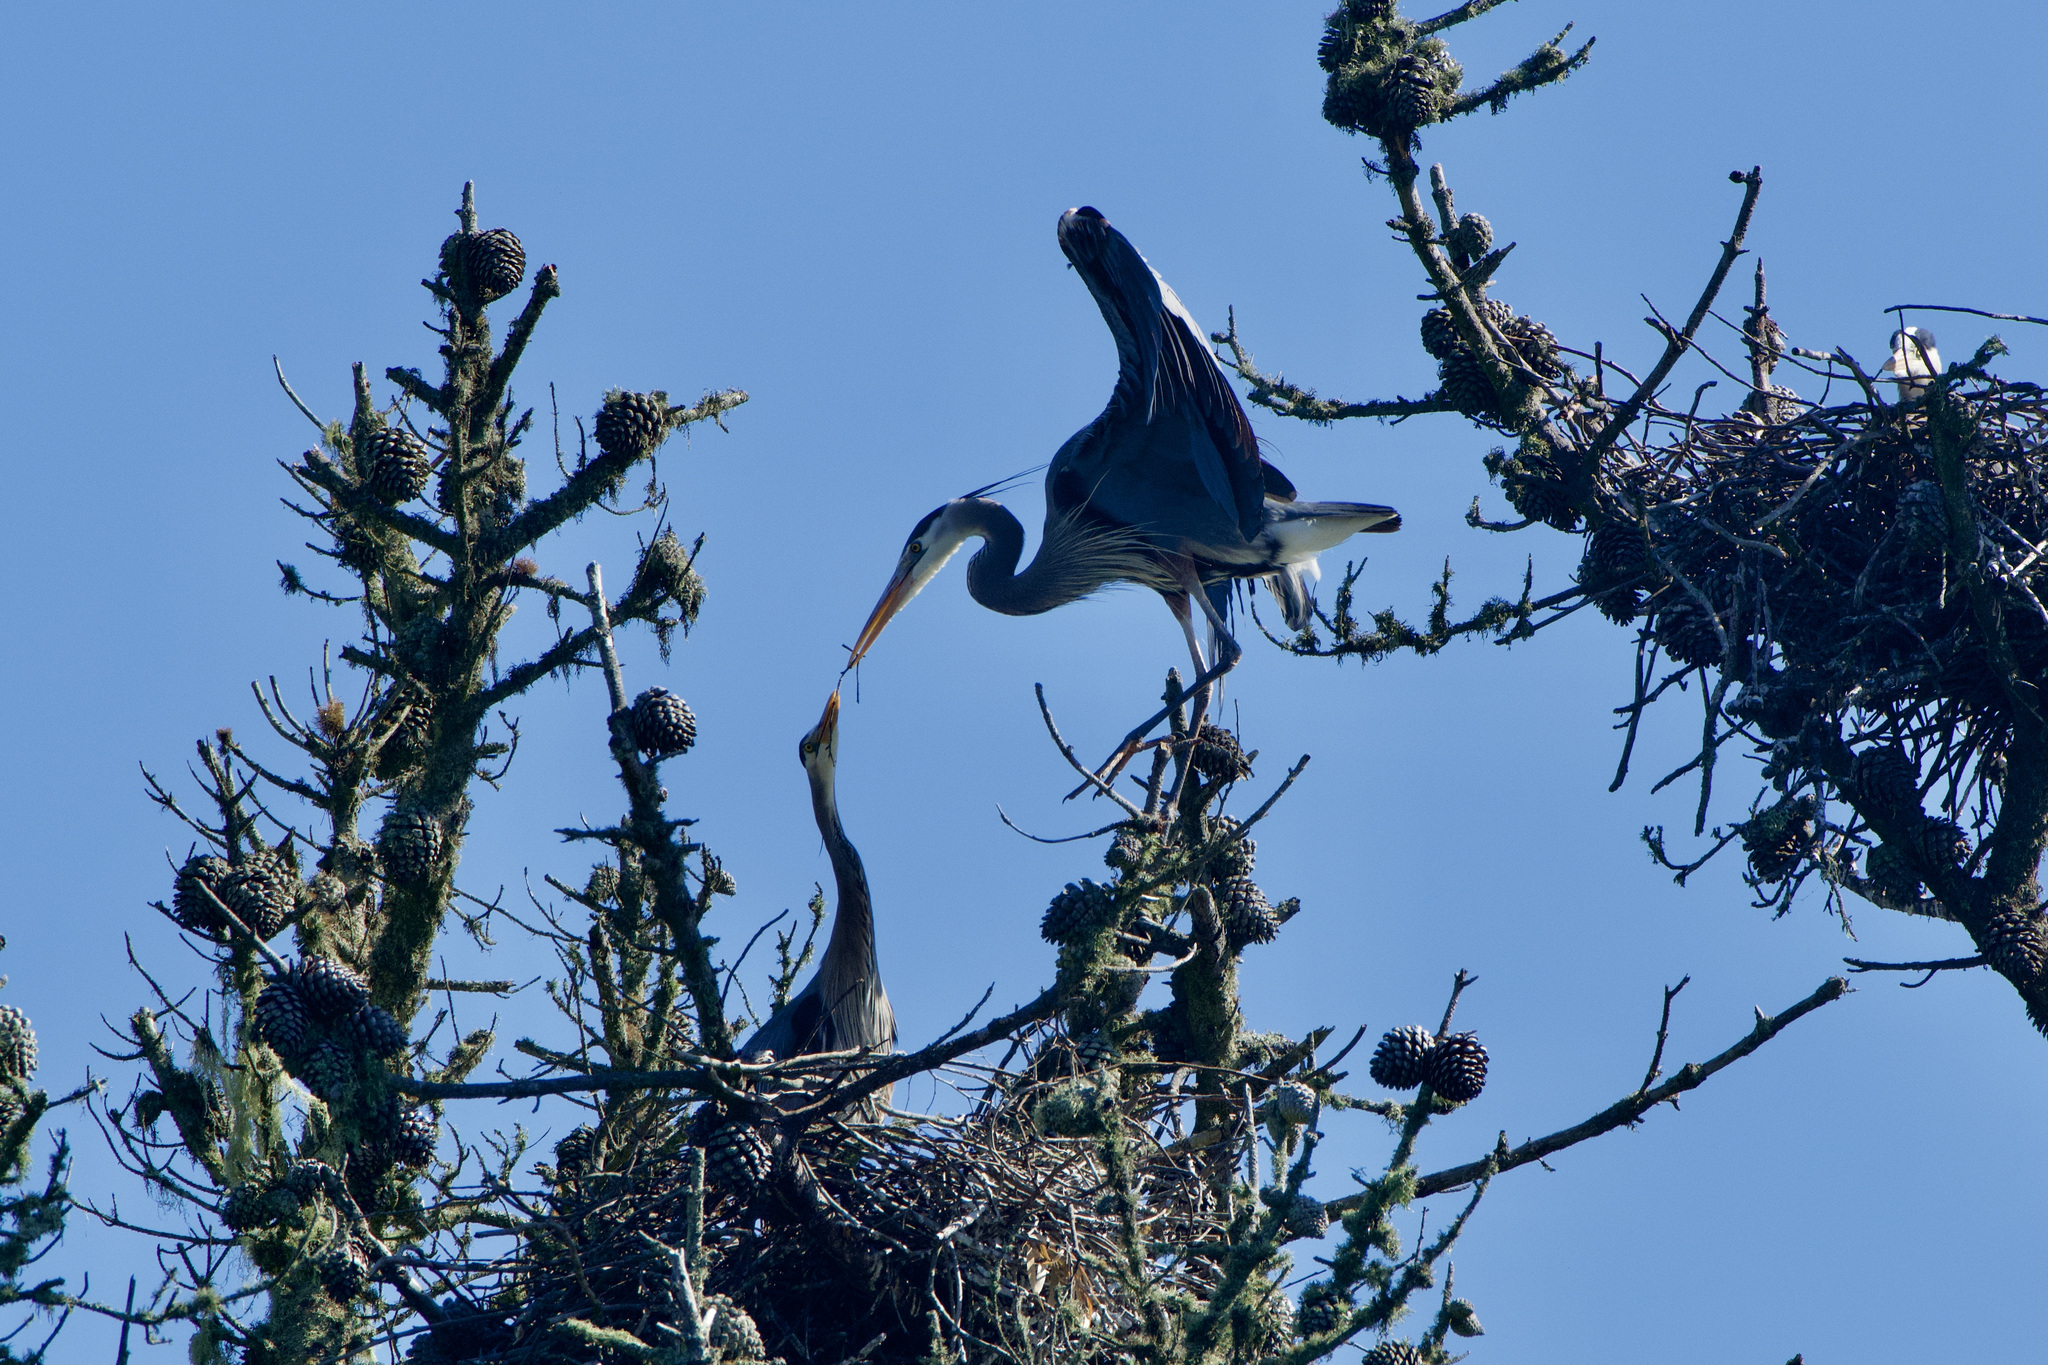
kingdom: Animalia
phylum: Chordata
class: Aves
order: Pelecaniformes
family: Ardeidae
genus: Ardea
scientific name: Ardea herodias
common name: Great blue heron
